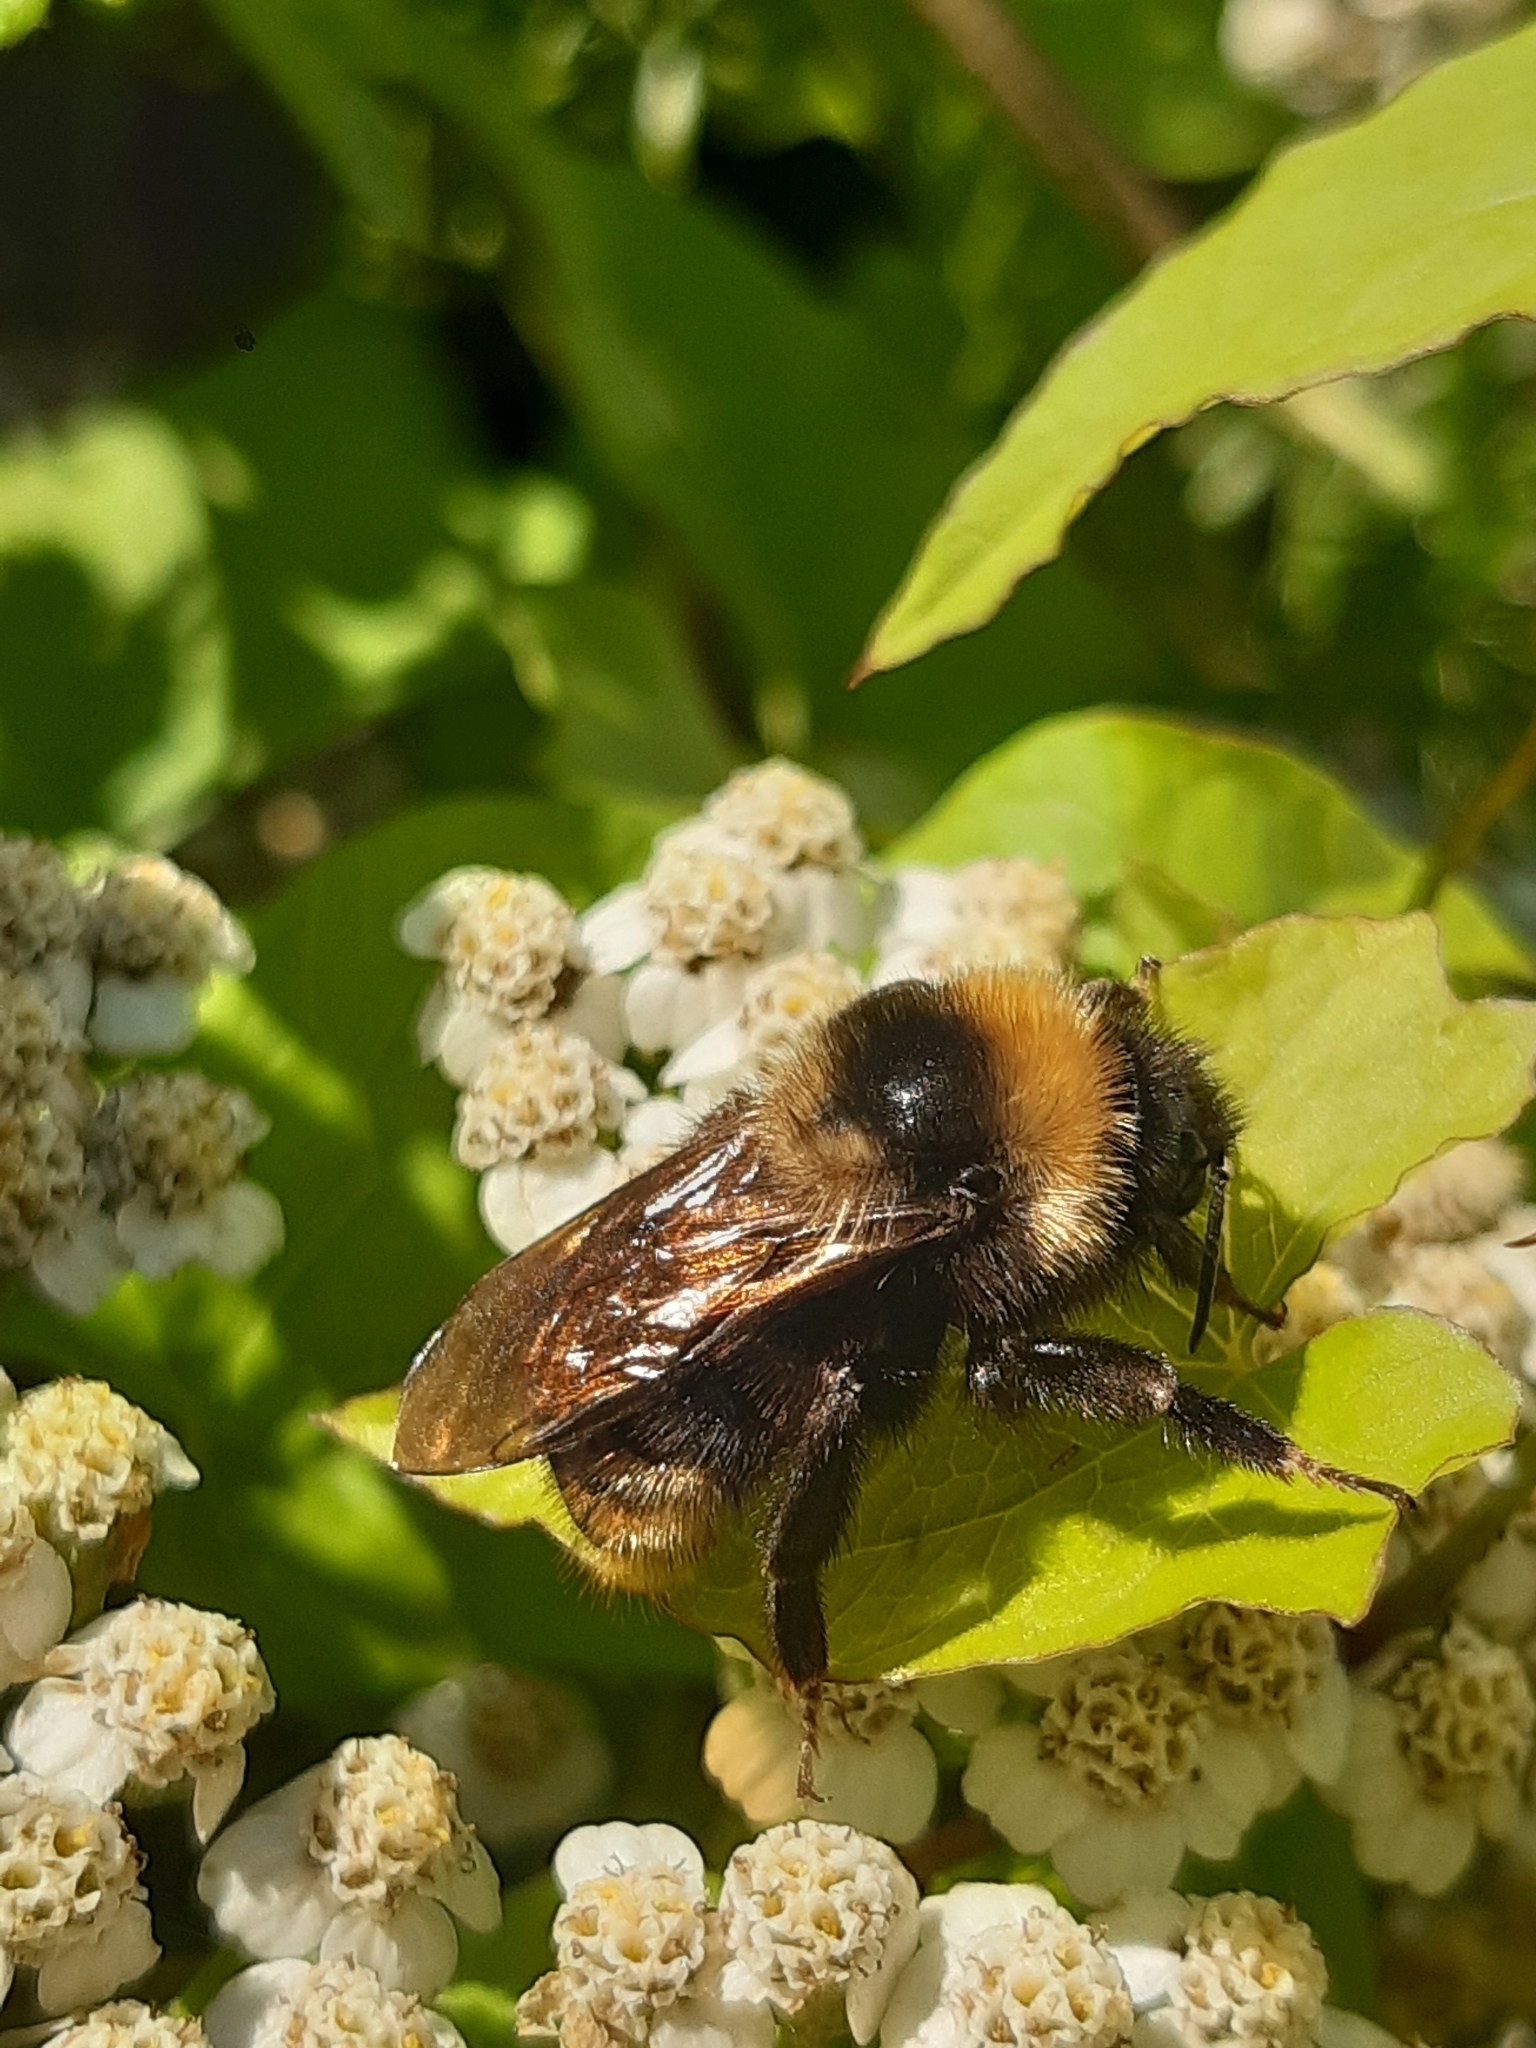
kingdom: Animalia
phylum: Arthropoda
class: Insecta
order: Hymenoptera
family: Apidae
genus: Bombus
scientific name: Bombus campestris
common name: Field cuckoo-bee
